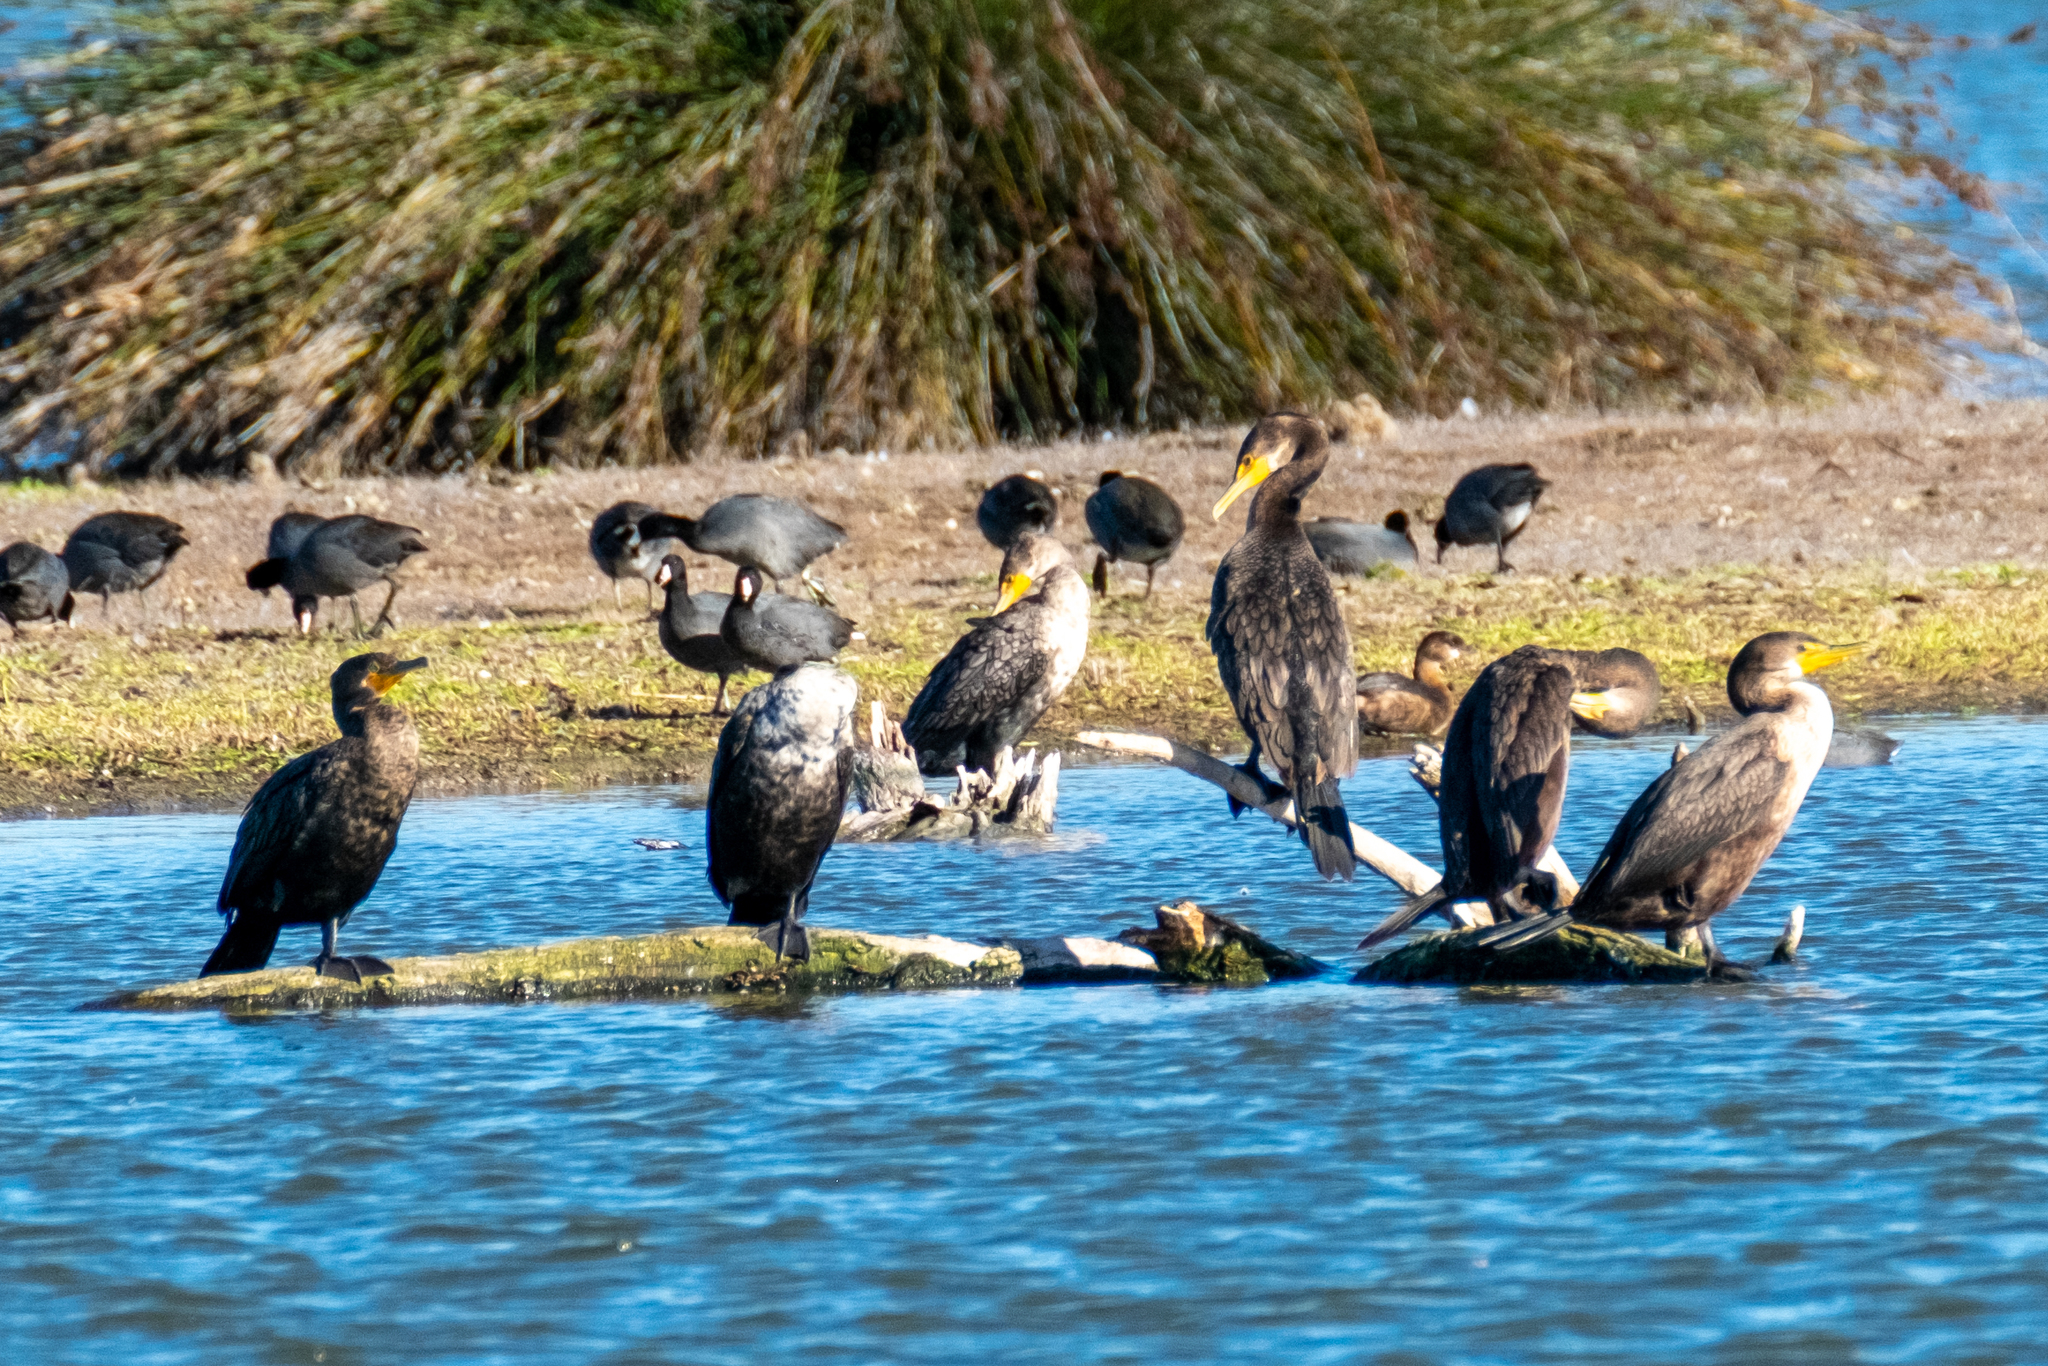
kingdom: Animalia
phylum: Chordata
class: Aves
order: Suliformes
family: Phalacrocoracidae
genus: Phalacrocorax
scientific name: Phalacrocorax auritus
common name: Double-crested cormorant
